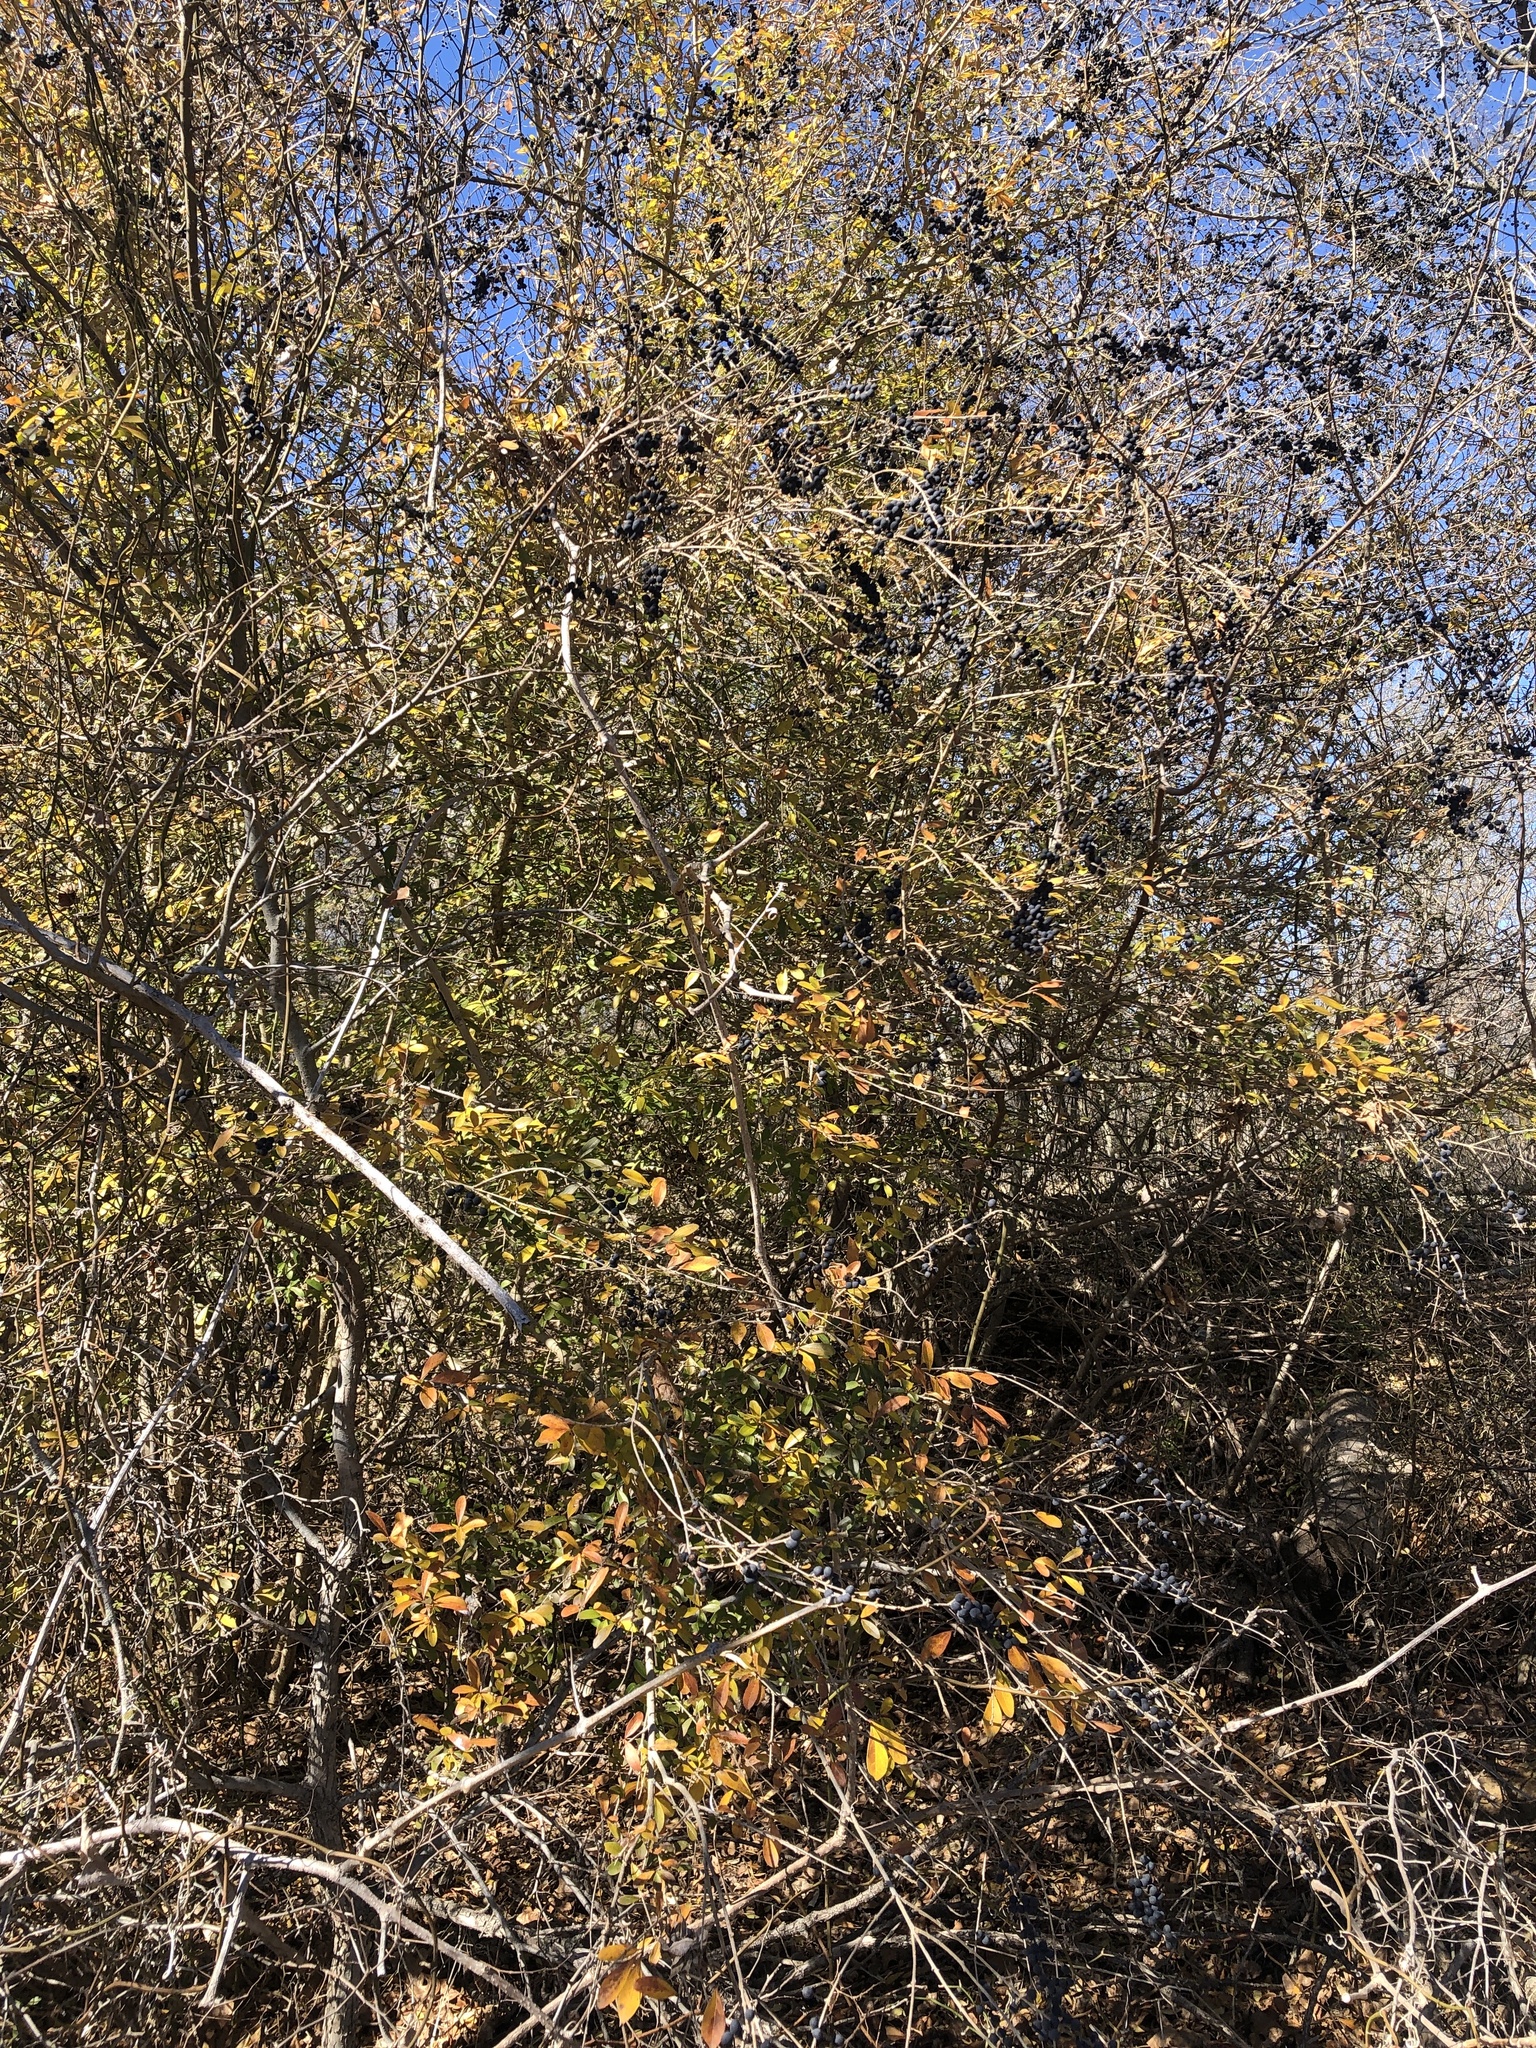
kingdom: Plantae
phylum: Tracheophyta
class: Magnoliopsida
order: Lamiales
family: Oleaceae
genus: Ligustrum
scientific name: Ligustrum quihoui
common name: Waxyleaf privet
